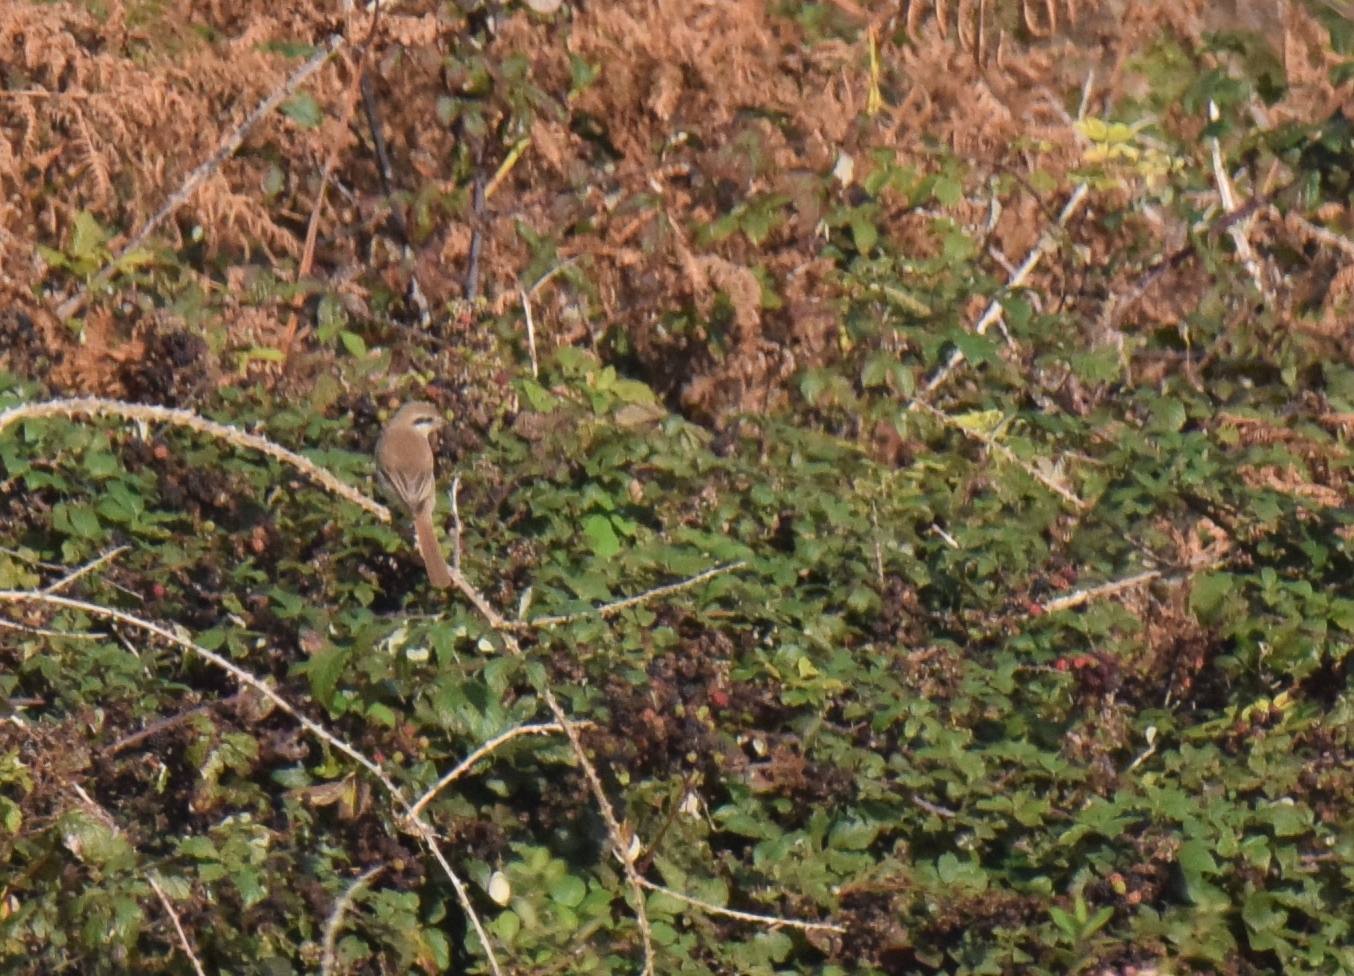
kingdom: Animalia
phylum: Chordata
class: Aves
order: Passeriformes
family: Laniidae
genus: Lanius
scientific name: Lanius cristatus
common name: Brown shrike
